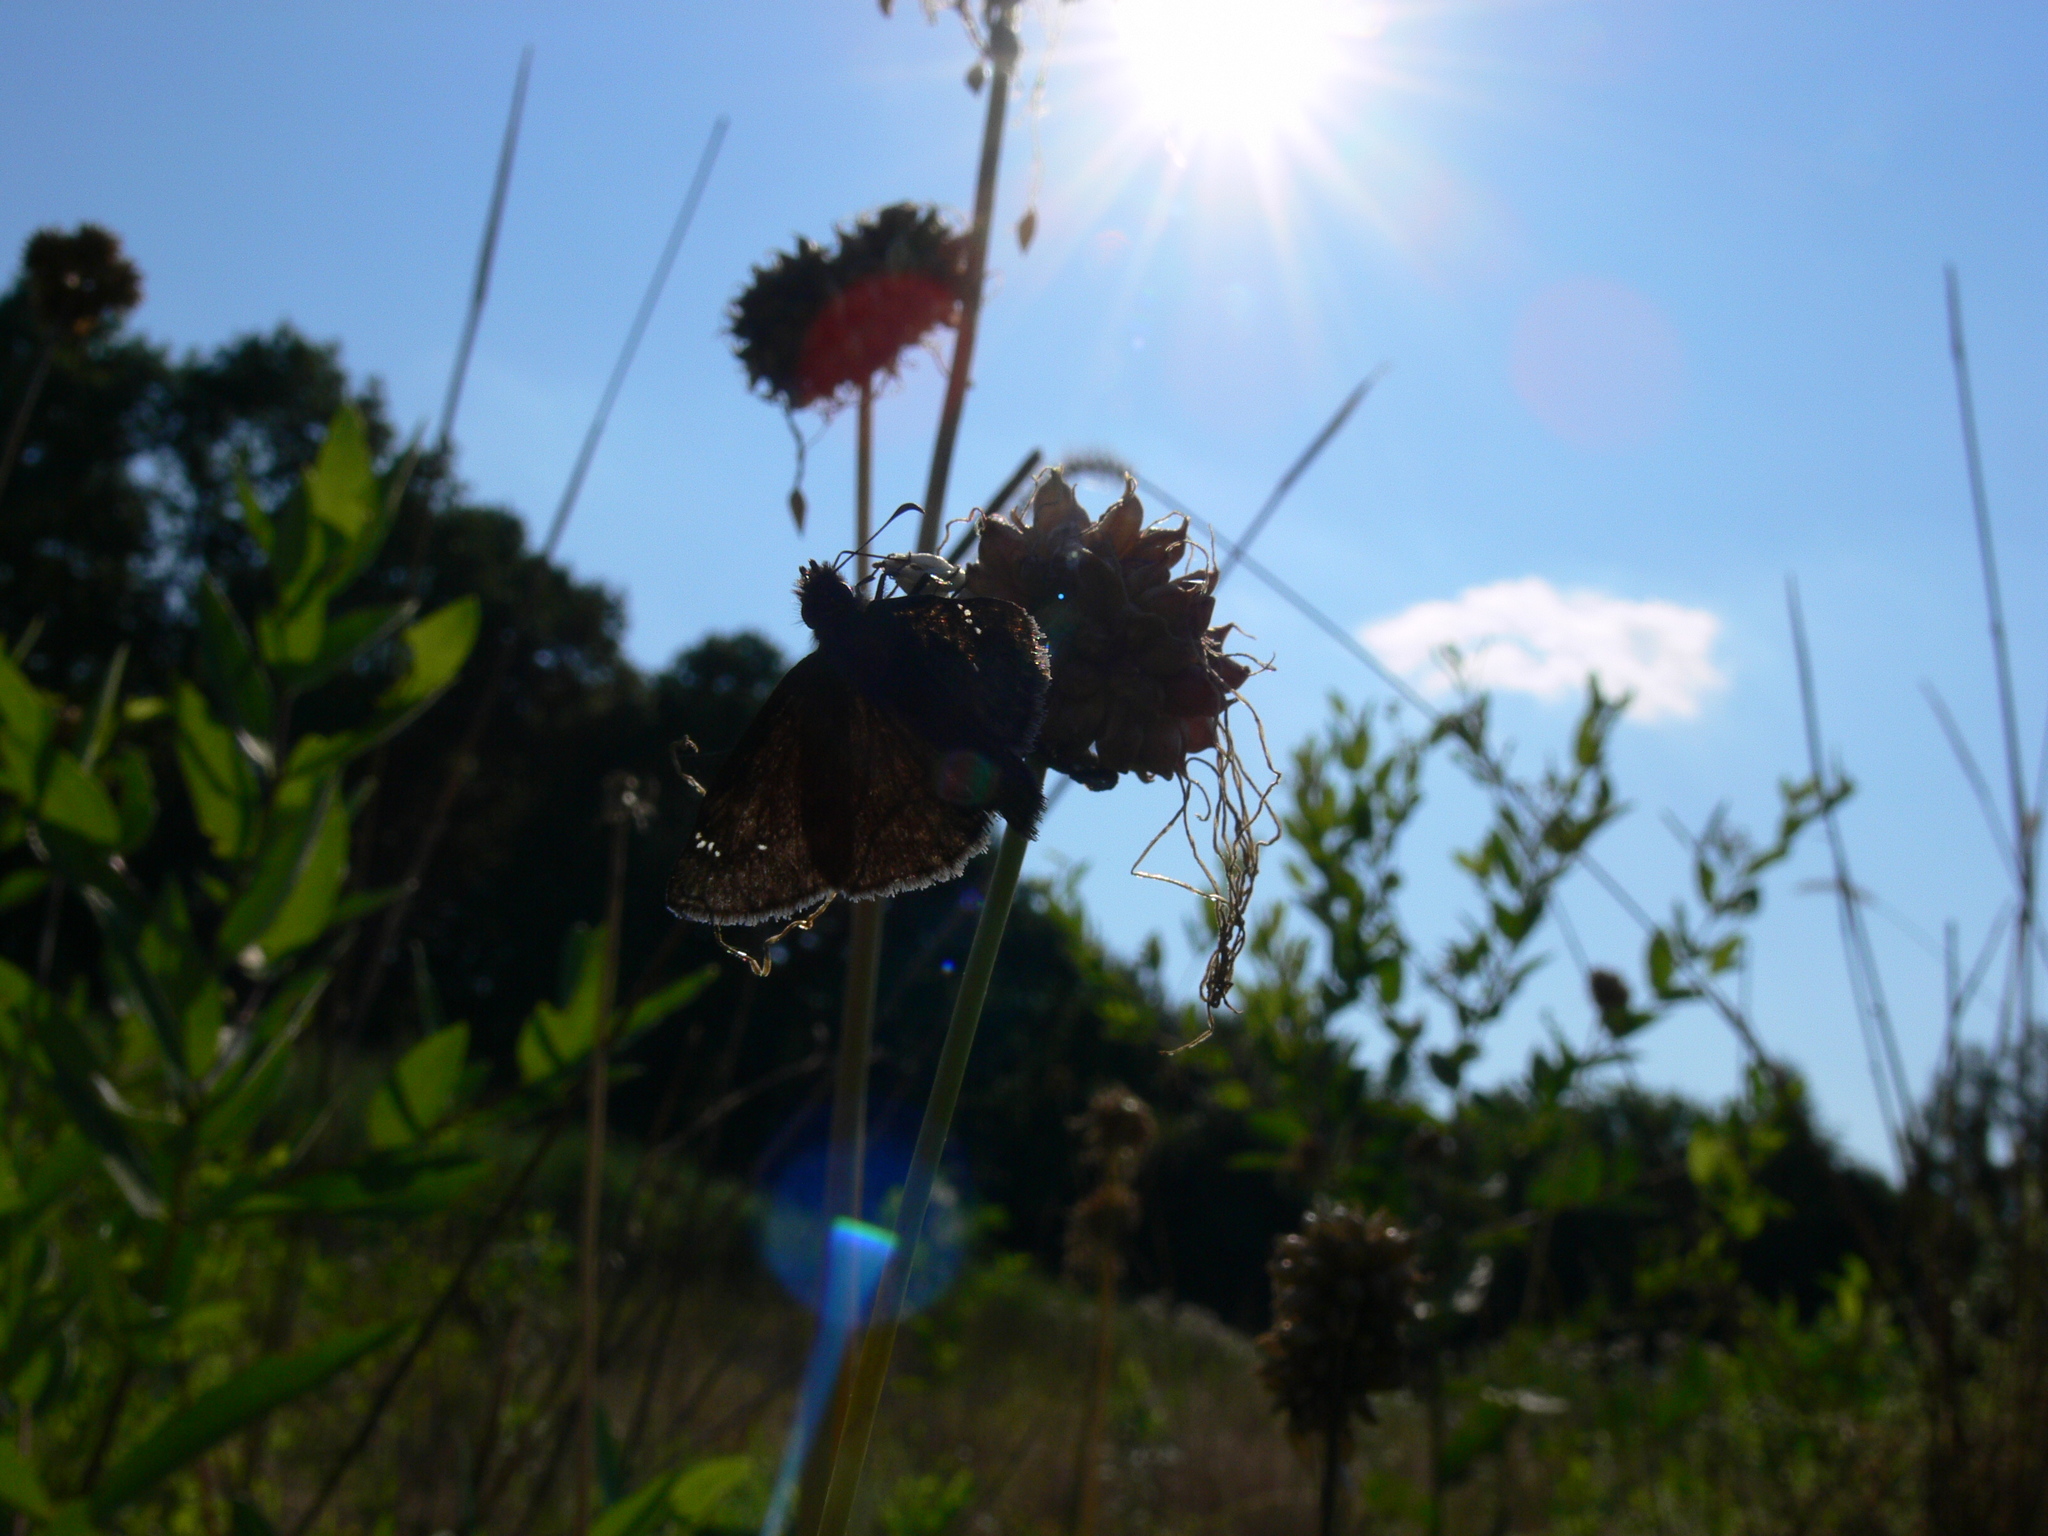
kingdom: Animalia
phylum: Arthropoda
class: Insecta
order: Lepidoptera
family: Hesperiidae
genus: Erynnis
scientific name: Erynnis baptisiae
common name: Wild indigo duskywing
